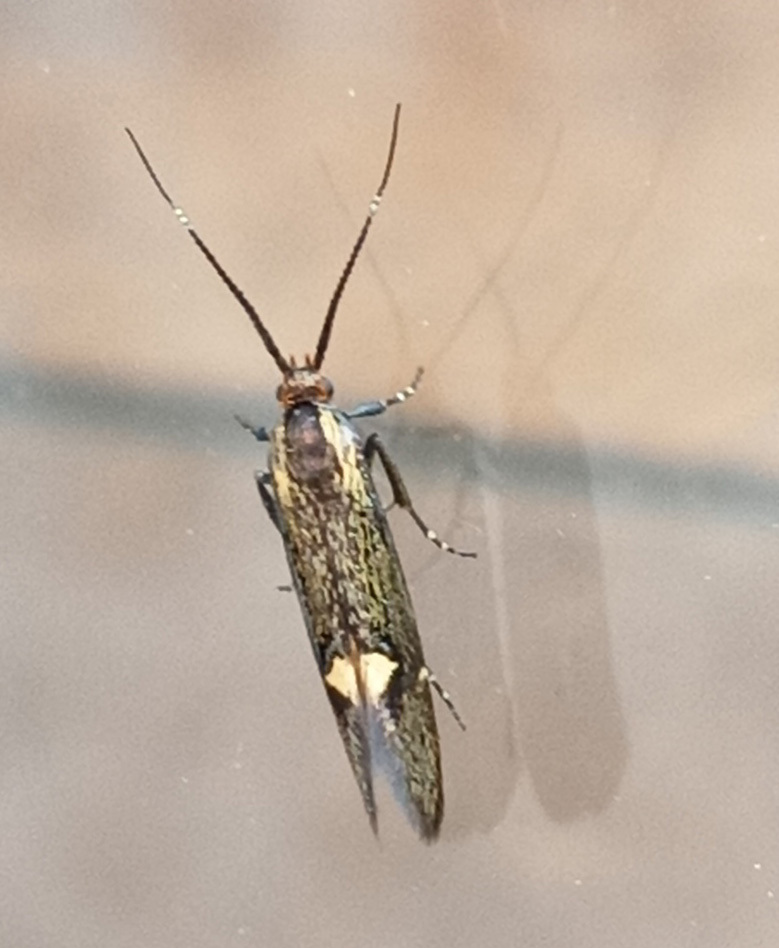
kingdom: Animalia
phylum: Arthropoda
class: Insecta
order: Lepidoptera
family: Oecophoridae
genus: Dafa
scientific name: Dafa Esperia sulphurella
